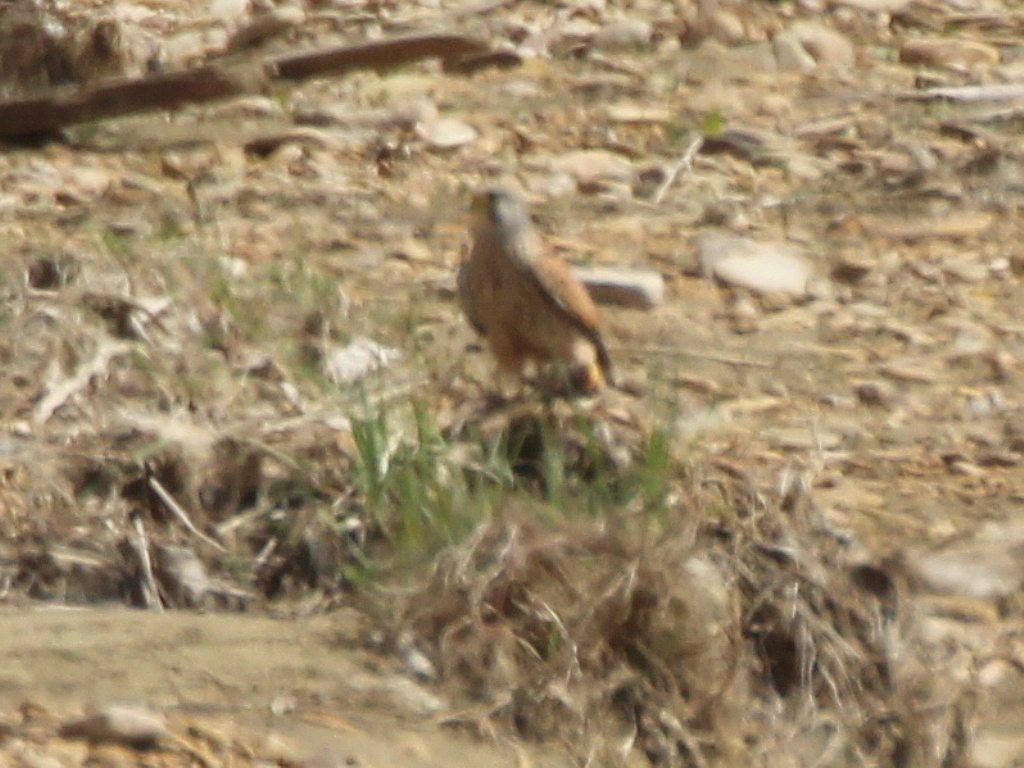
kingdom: Animalia
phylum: Chordata
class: Aves
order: Falconiformes
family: Falconidae
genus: Falco
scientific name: Falco tinnunculus
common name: Common kestrel
